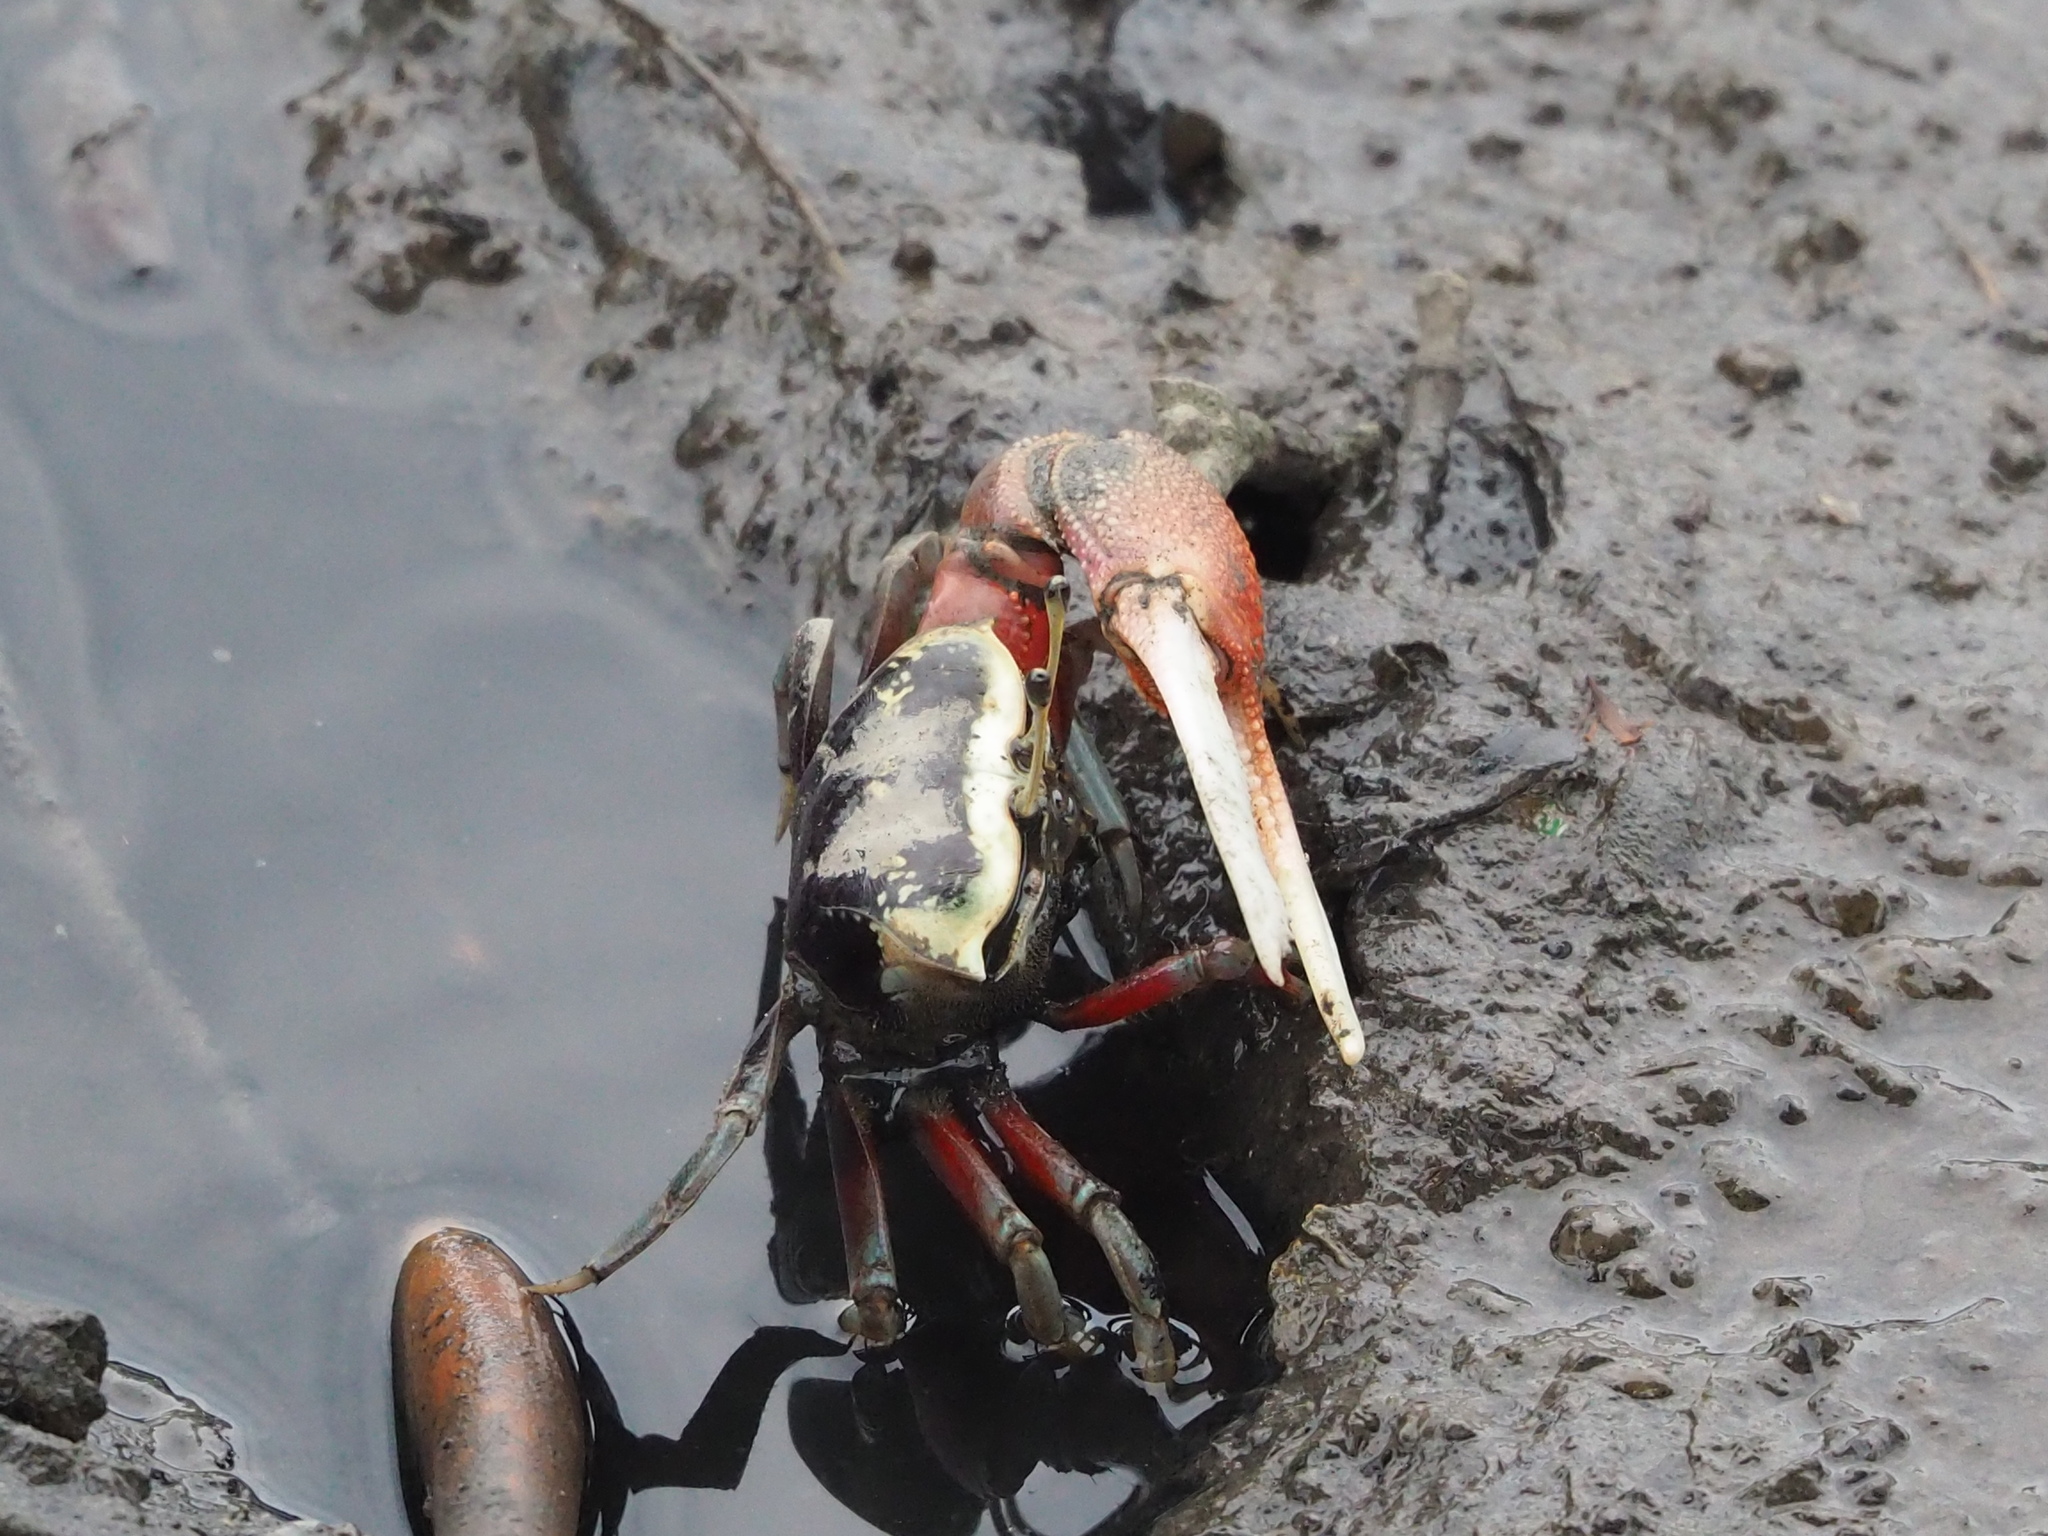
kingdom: Animalia
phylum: Arthropoda
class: Malacostraca
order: Decapoda
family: Ocypodidae
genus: Tubuca
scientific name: Tubuca arcuata
